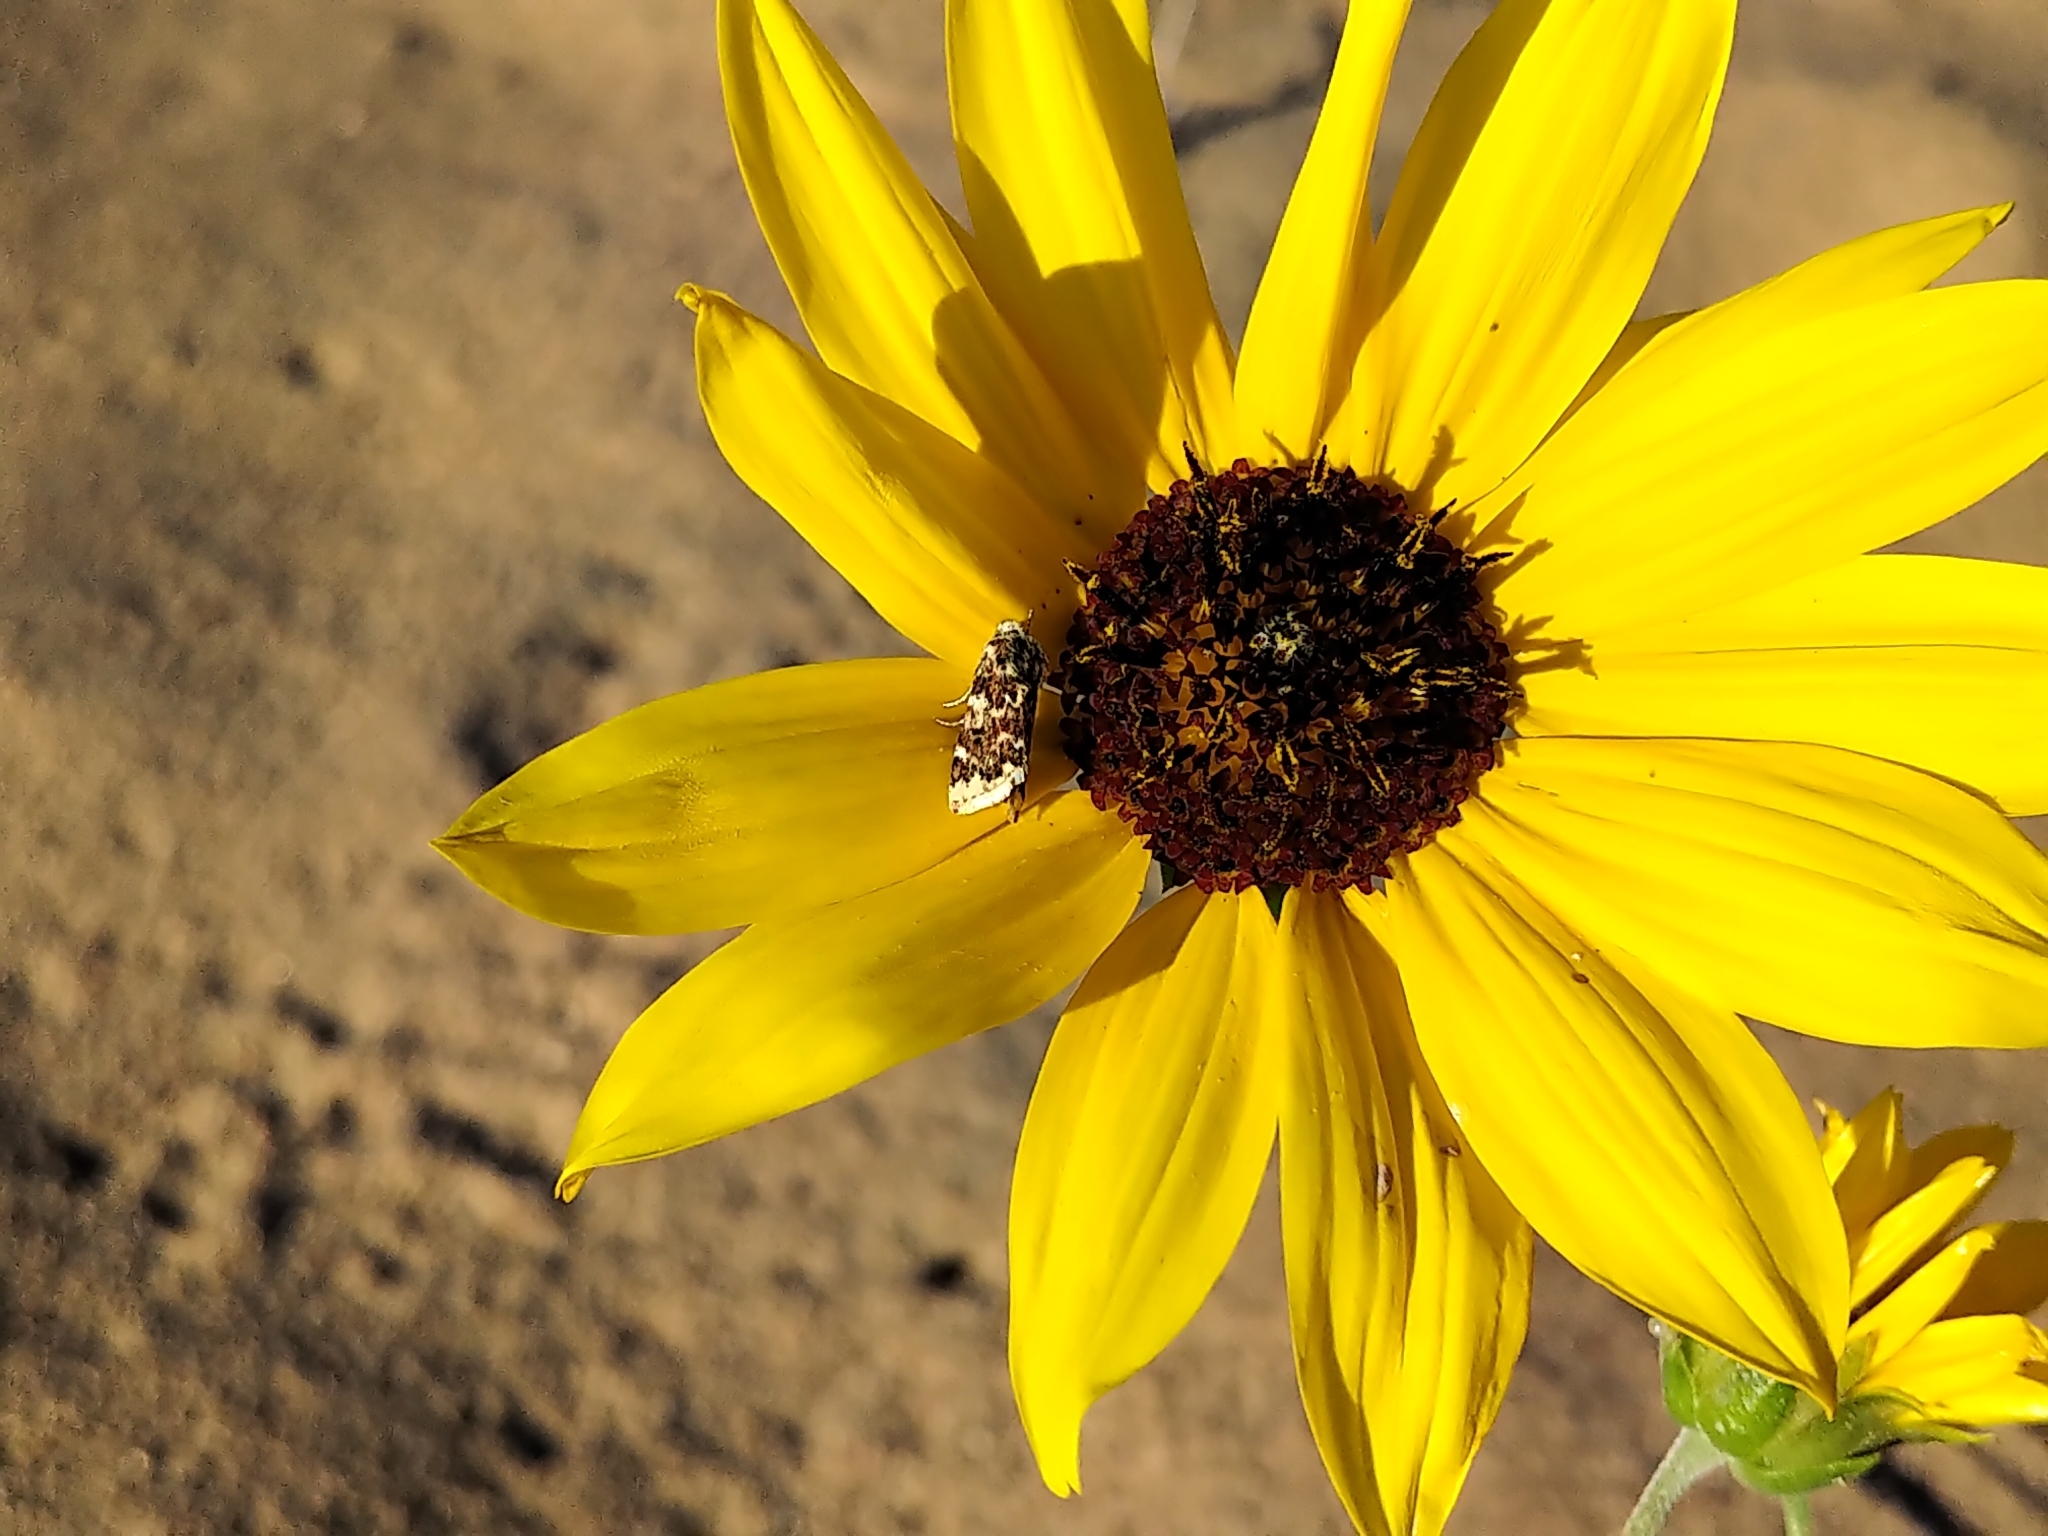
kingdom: Animalia
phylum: Arthropoda
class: Insecta
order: Lepidoptera
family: Noctuidae
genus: Schinia
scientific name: Schinia avemensis
